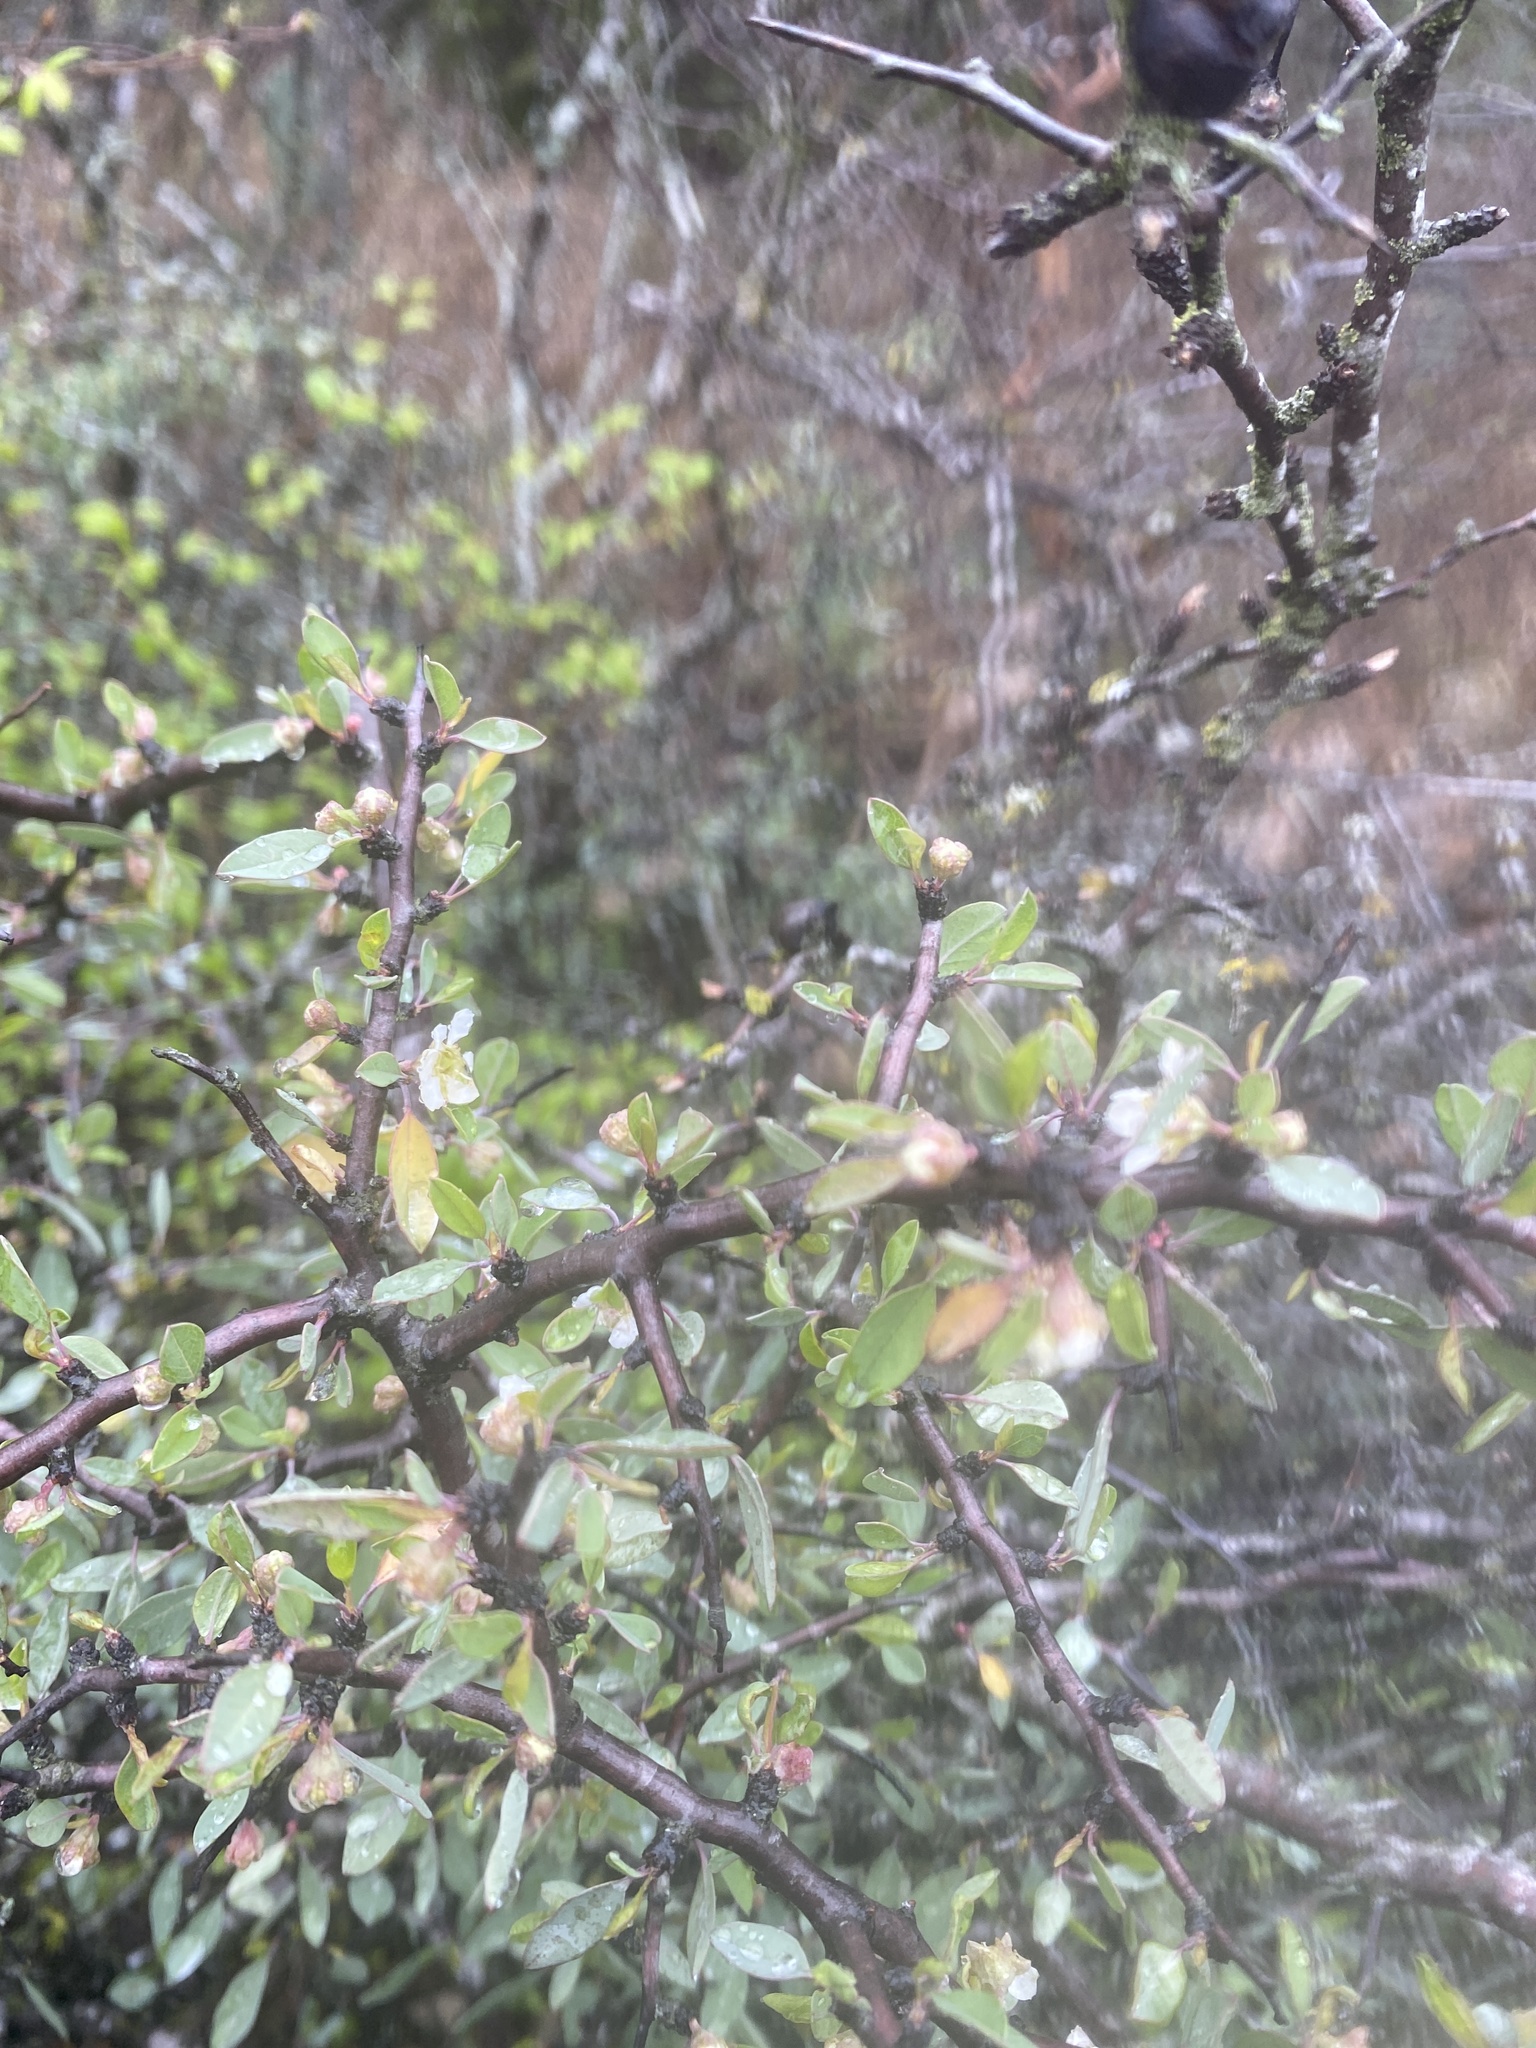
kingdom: Plantae
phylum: Tracheophyta
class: Magnoliopsida
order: Rosales
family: Rosaceae
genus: Prunus
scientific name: Prunus minutiflora
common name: Texas almond
